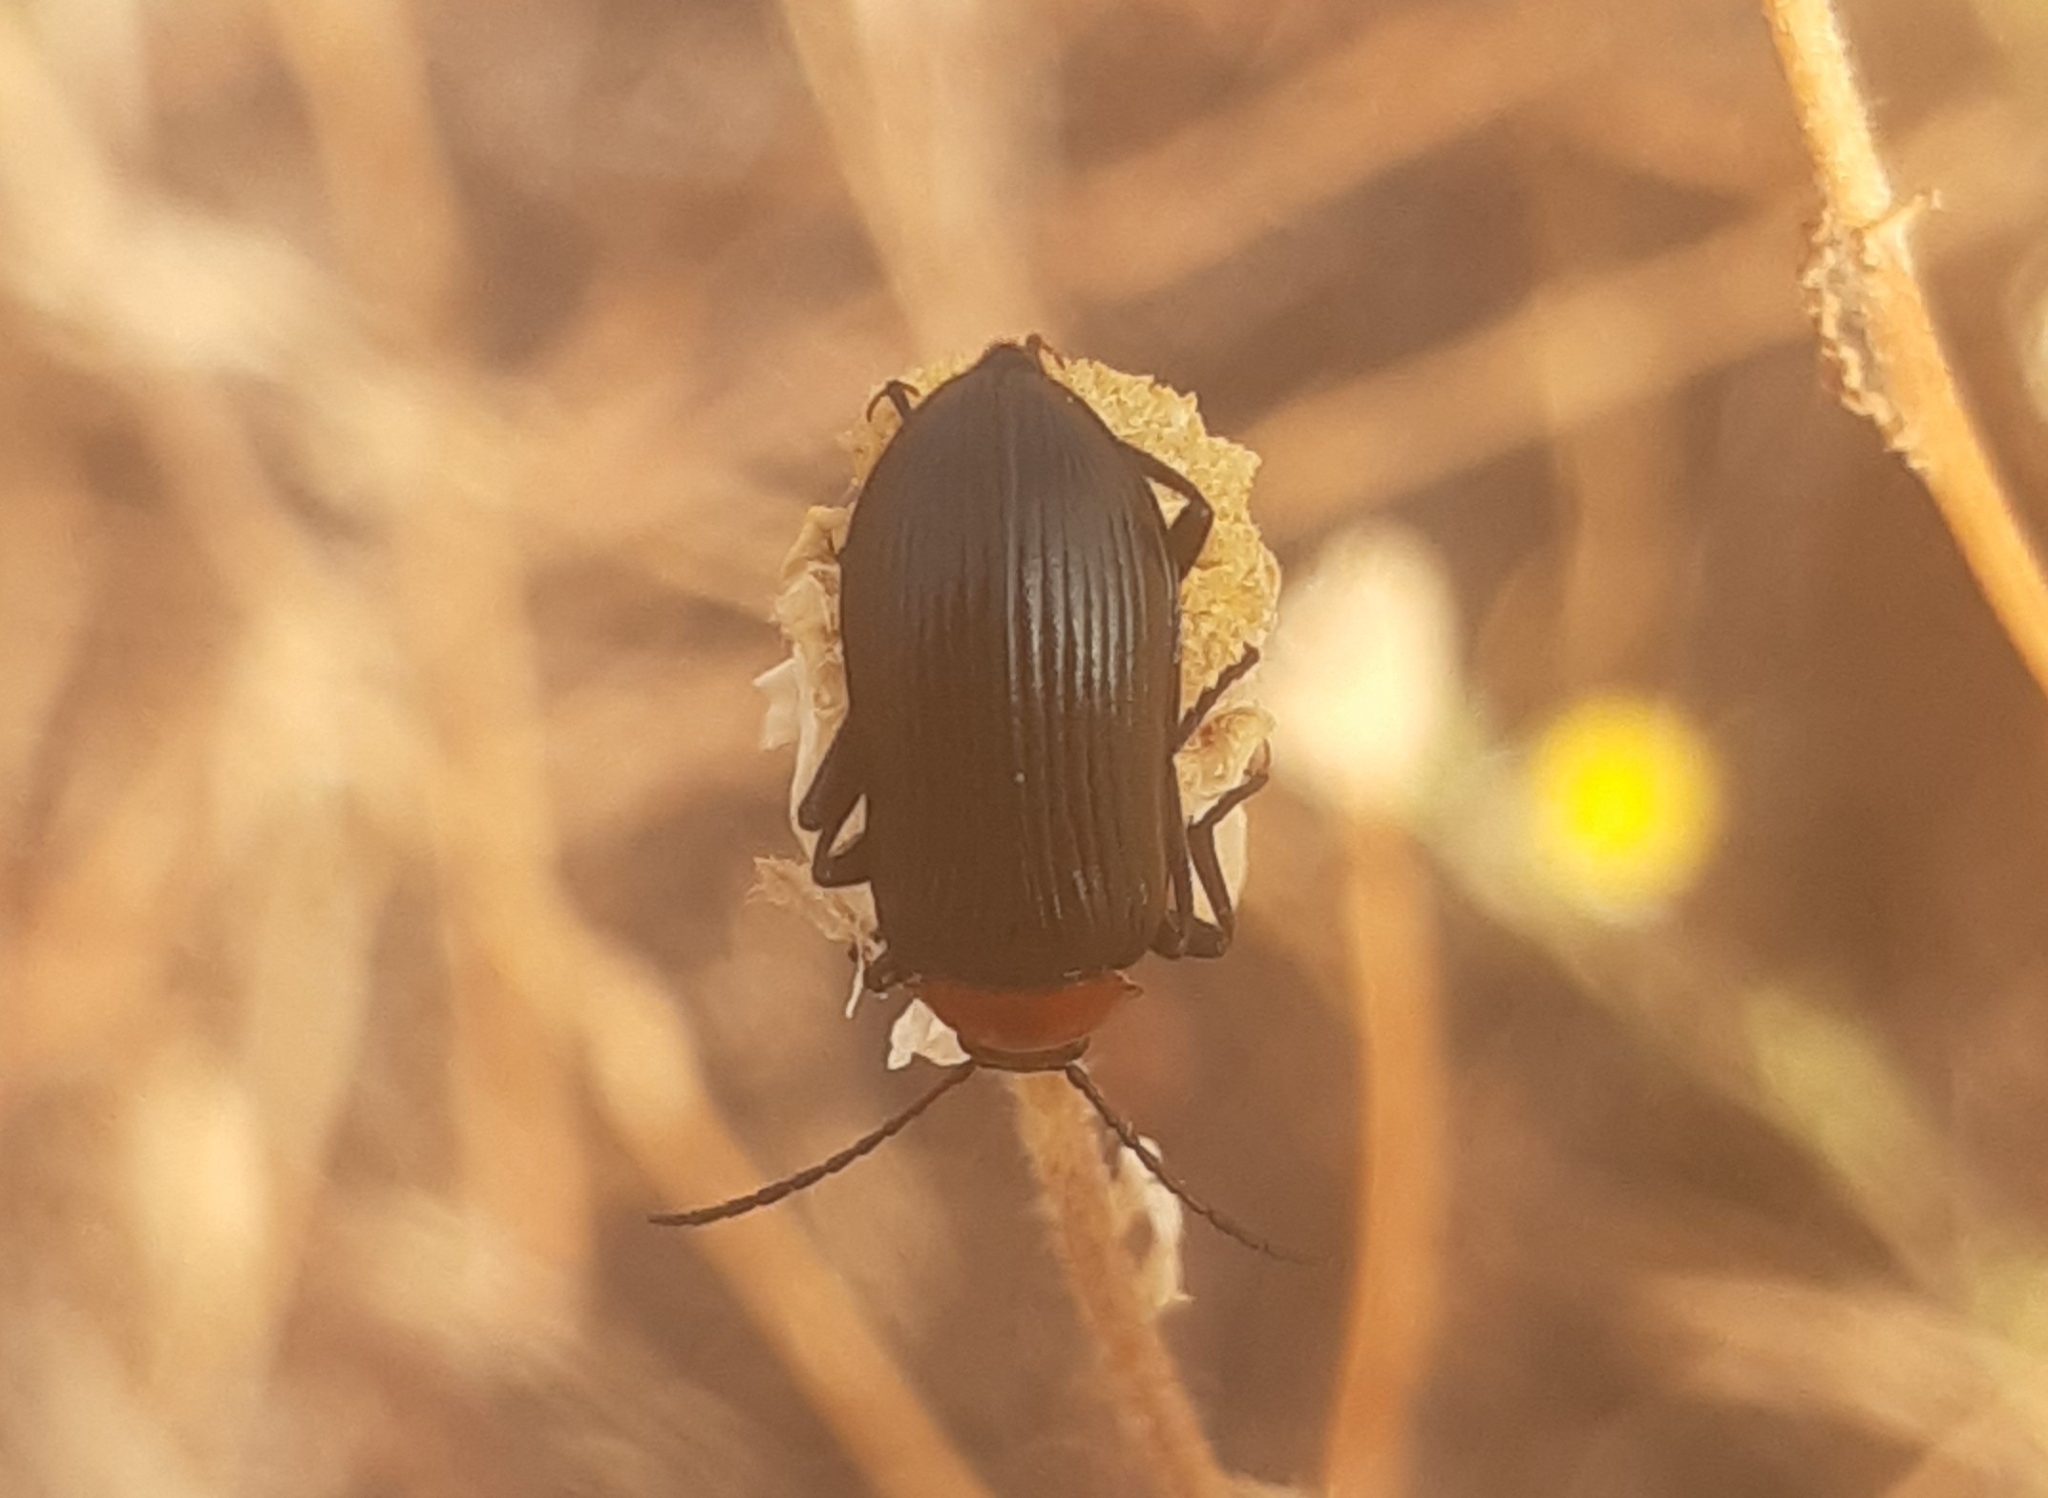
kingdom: Animalia
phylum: Arthropoda
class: Insecta
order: Coleoptera
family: Tenebrionidae
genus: Heliotaurus
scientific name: Heliotaurus ruficollis
